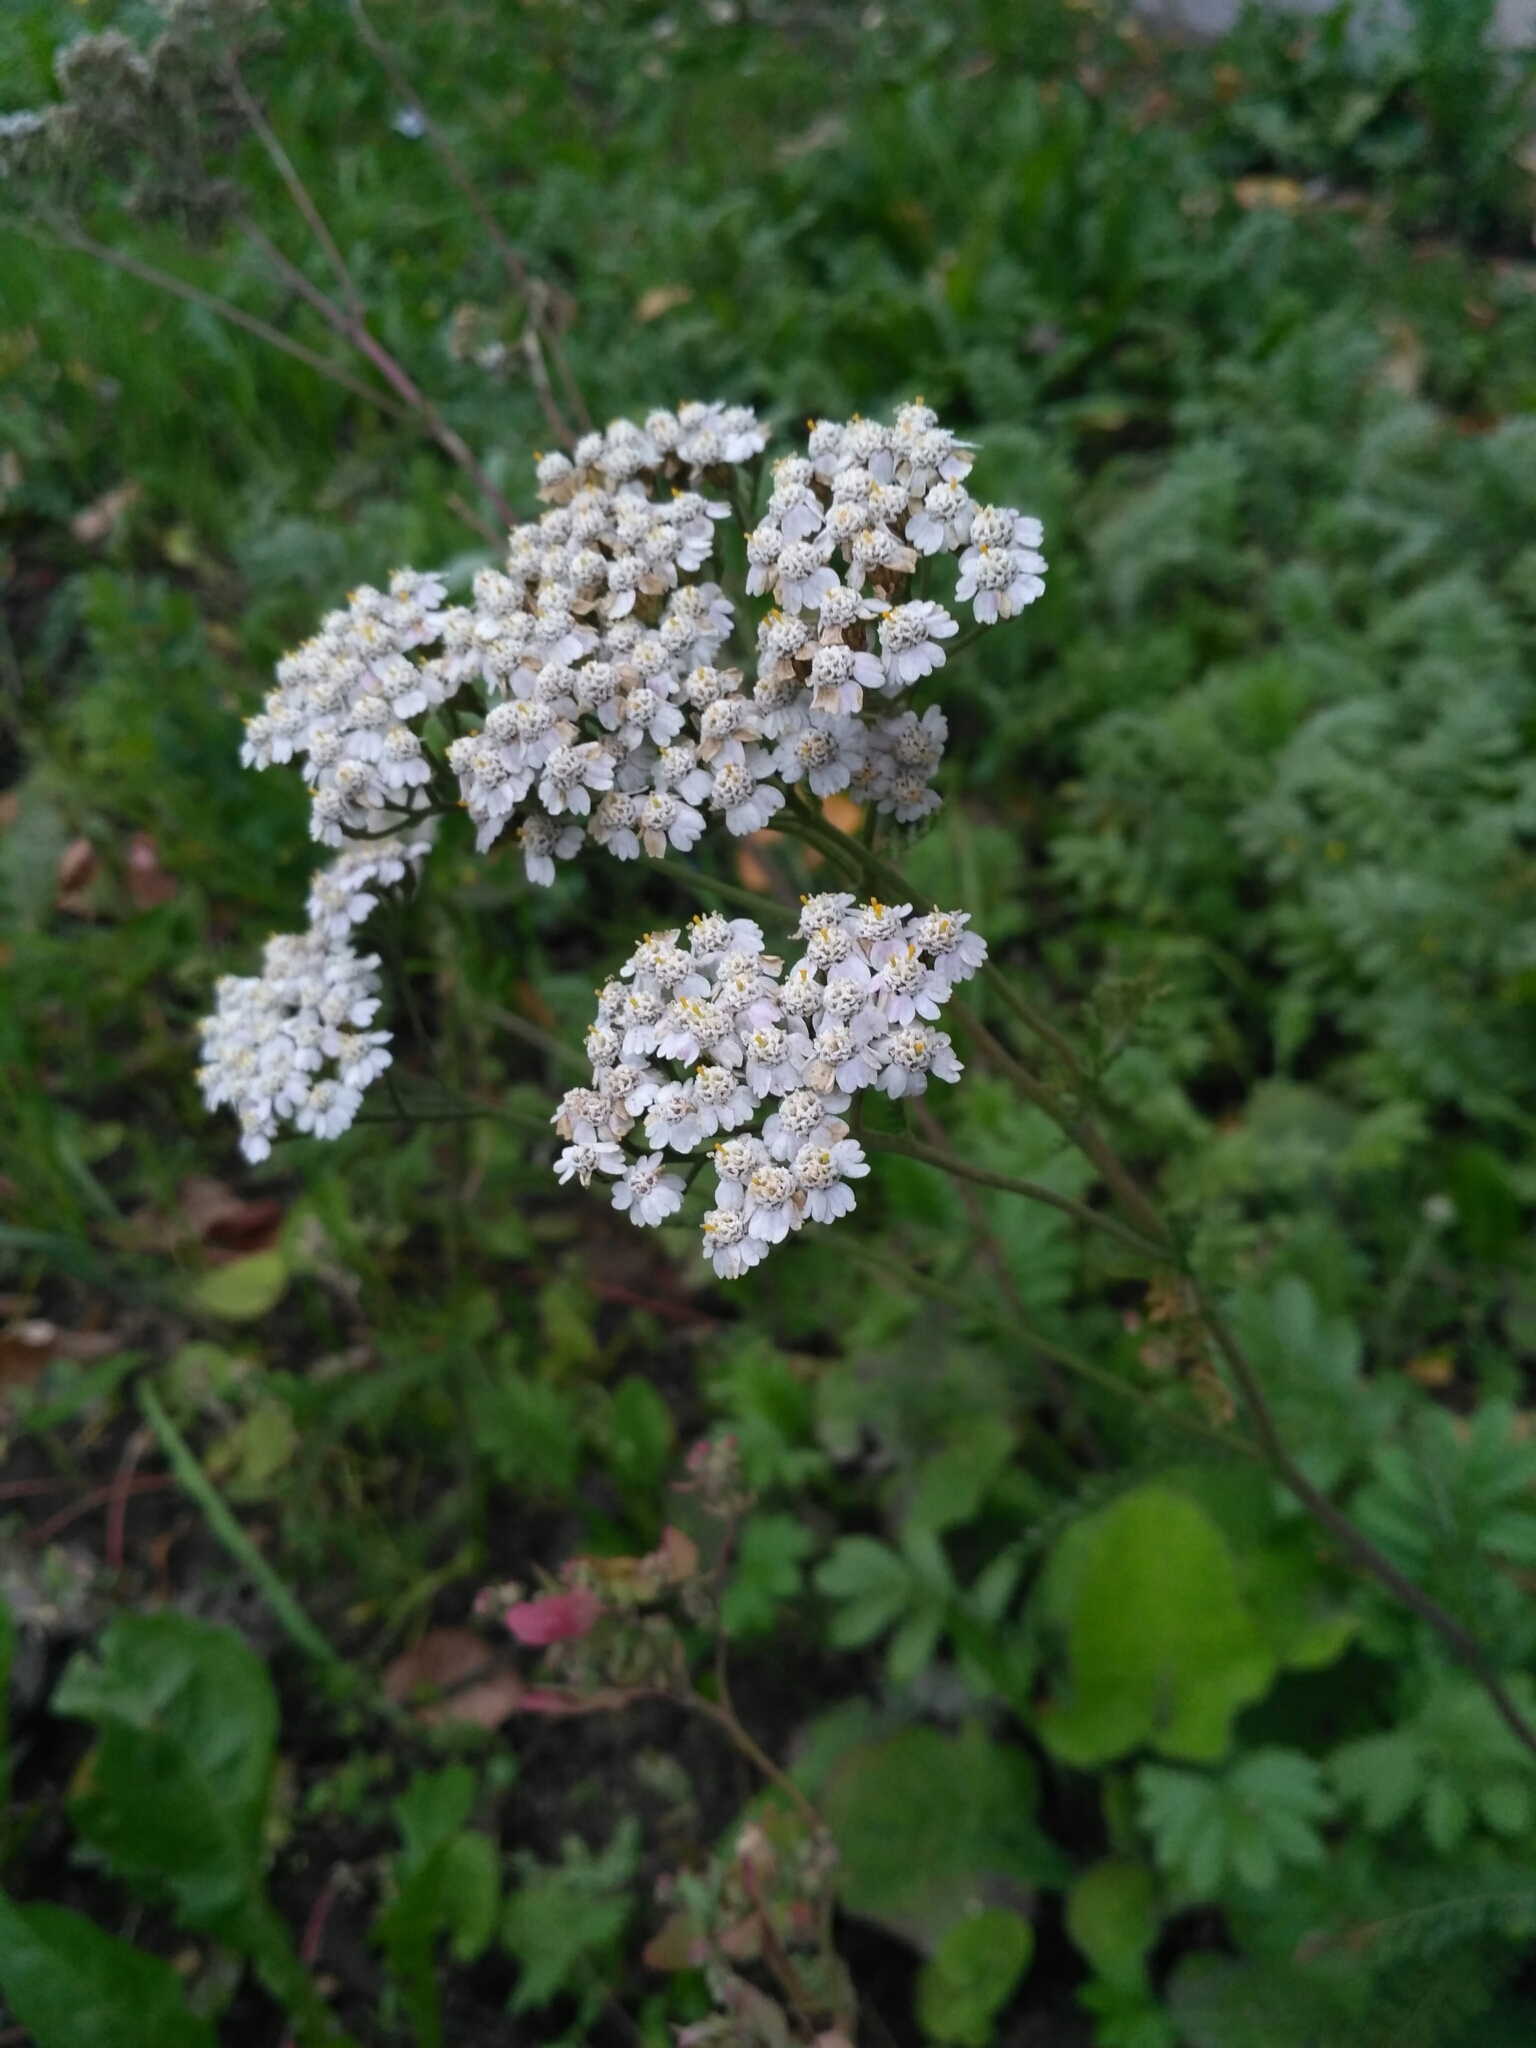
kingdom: Plantae
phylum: Tracheophyta
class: Magnoliopsida
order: Asterales
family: Asteraceae
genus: Achillea
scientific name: Achillea millefolium
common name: Yarrow
